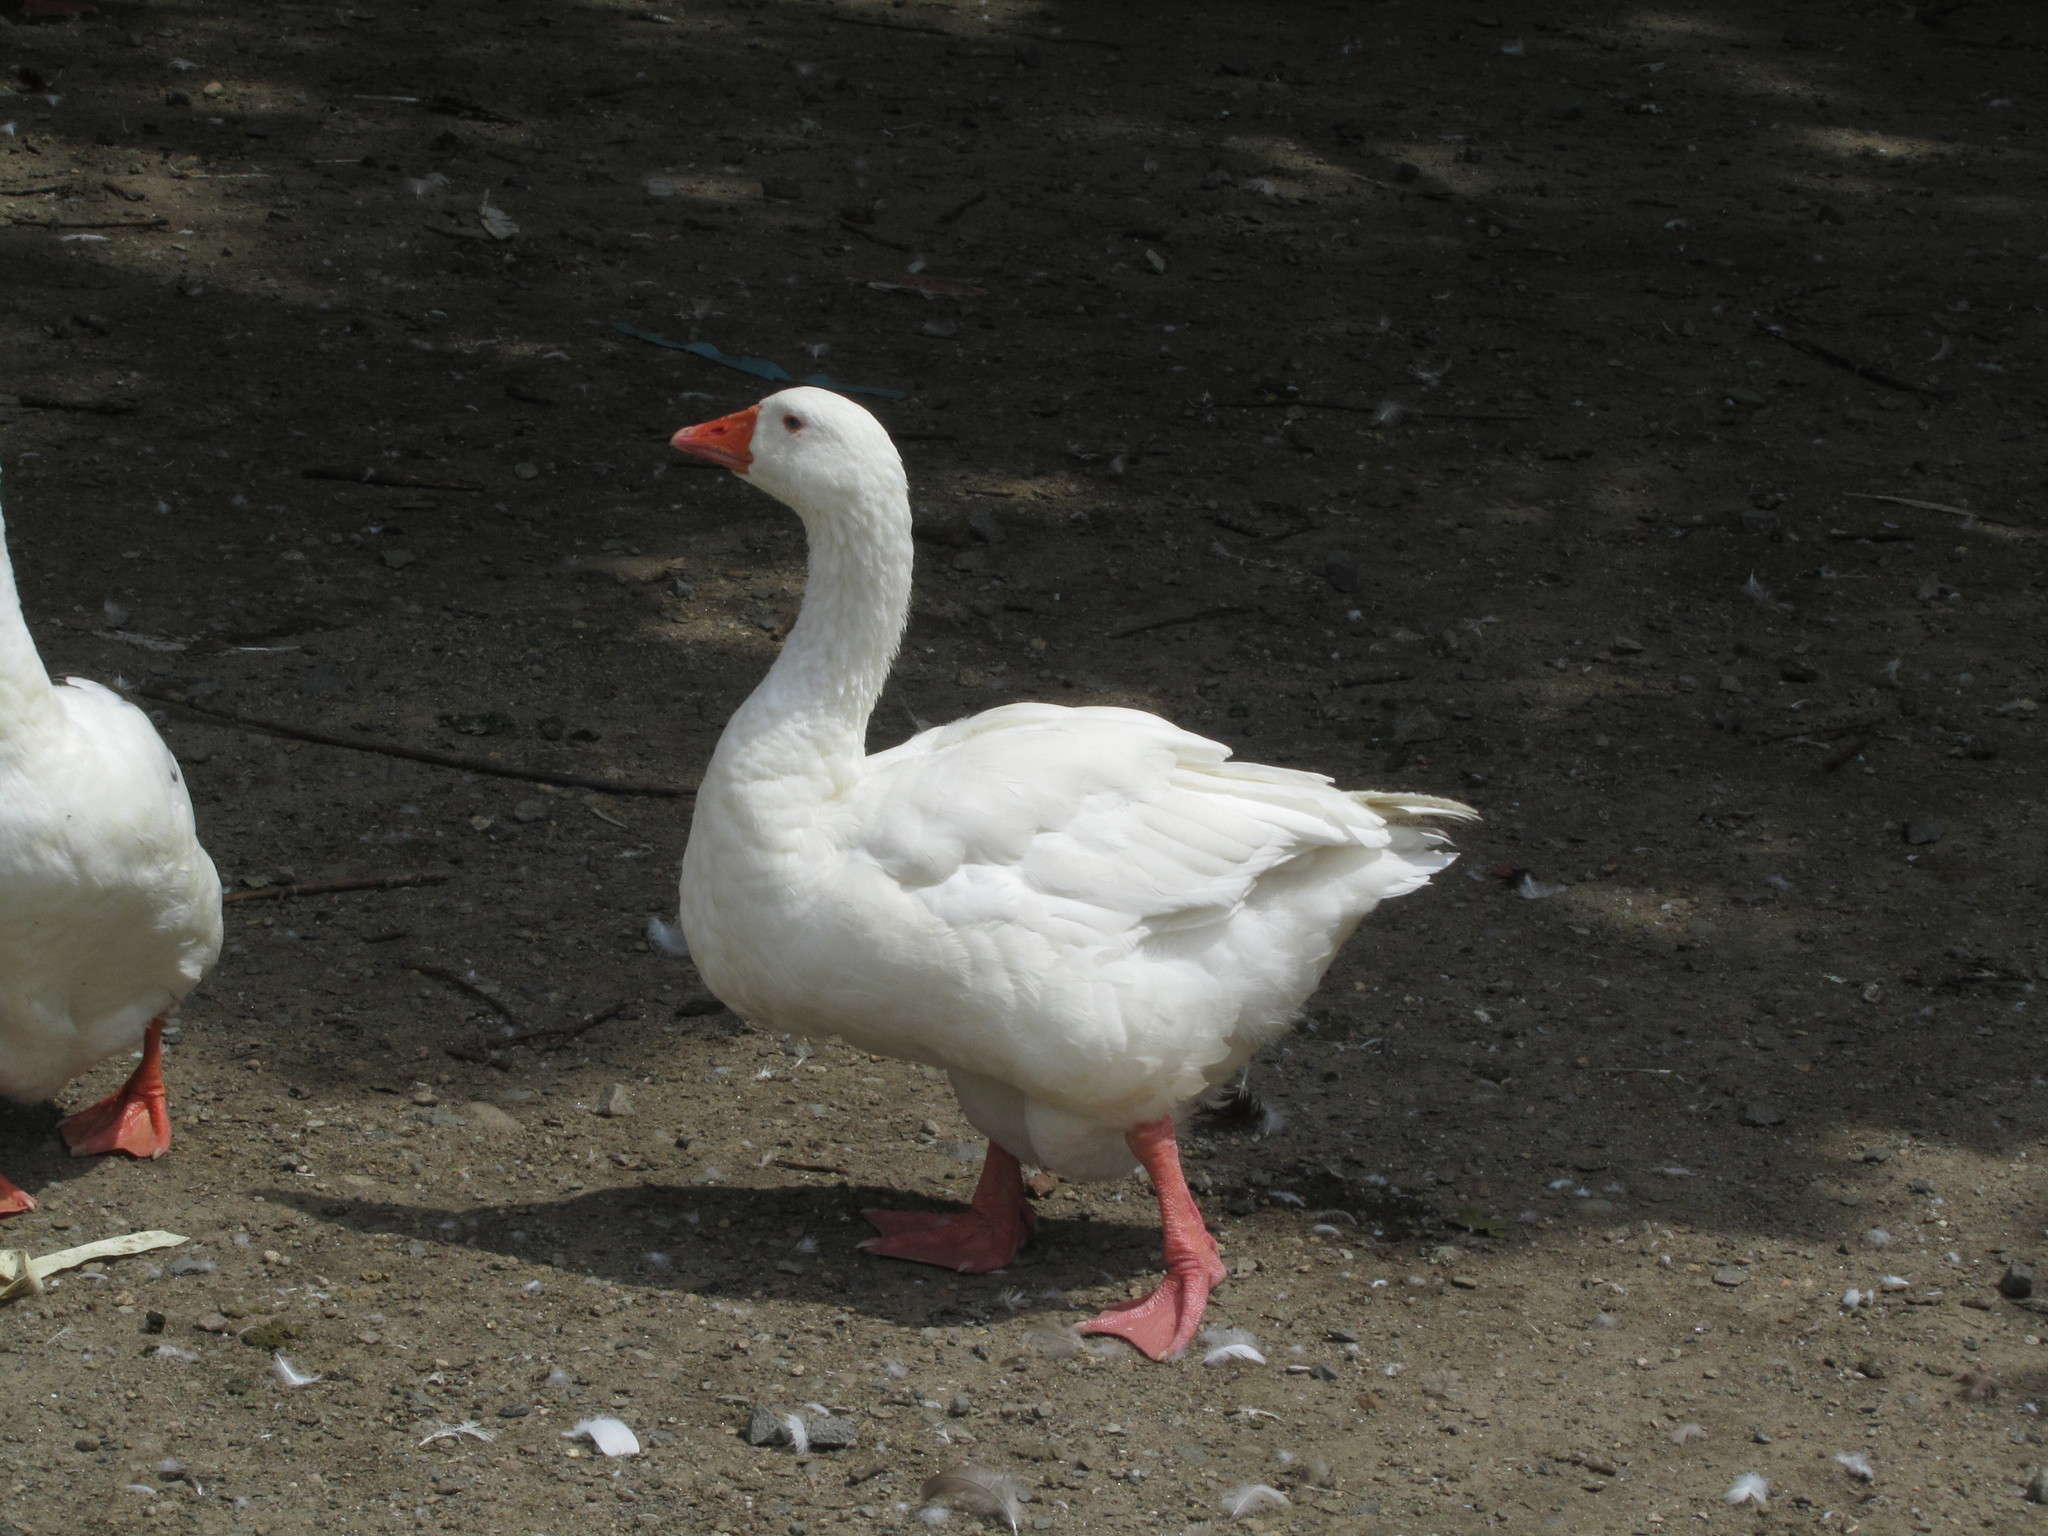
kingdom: Animalia
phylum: Chordata
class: Aves
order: Anseriformes
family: Anatidae
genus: Anser
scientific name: Anser anser
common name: Greylag goose
